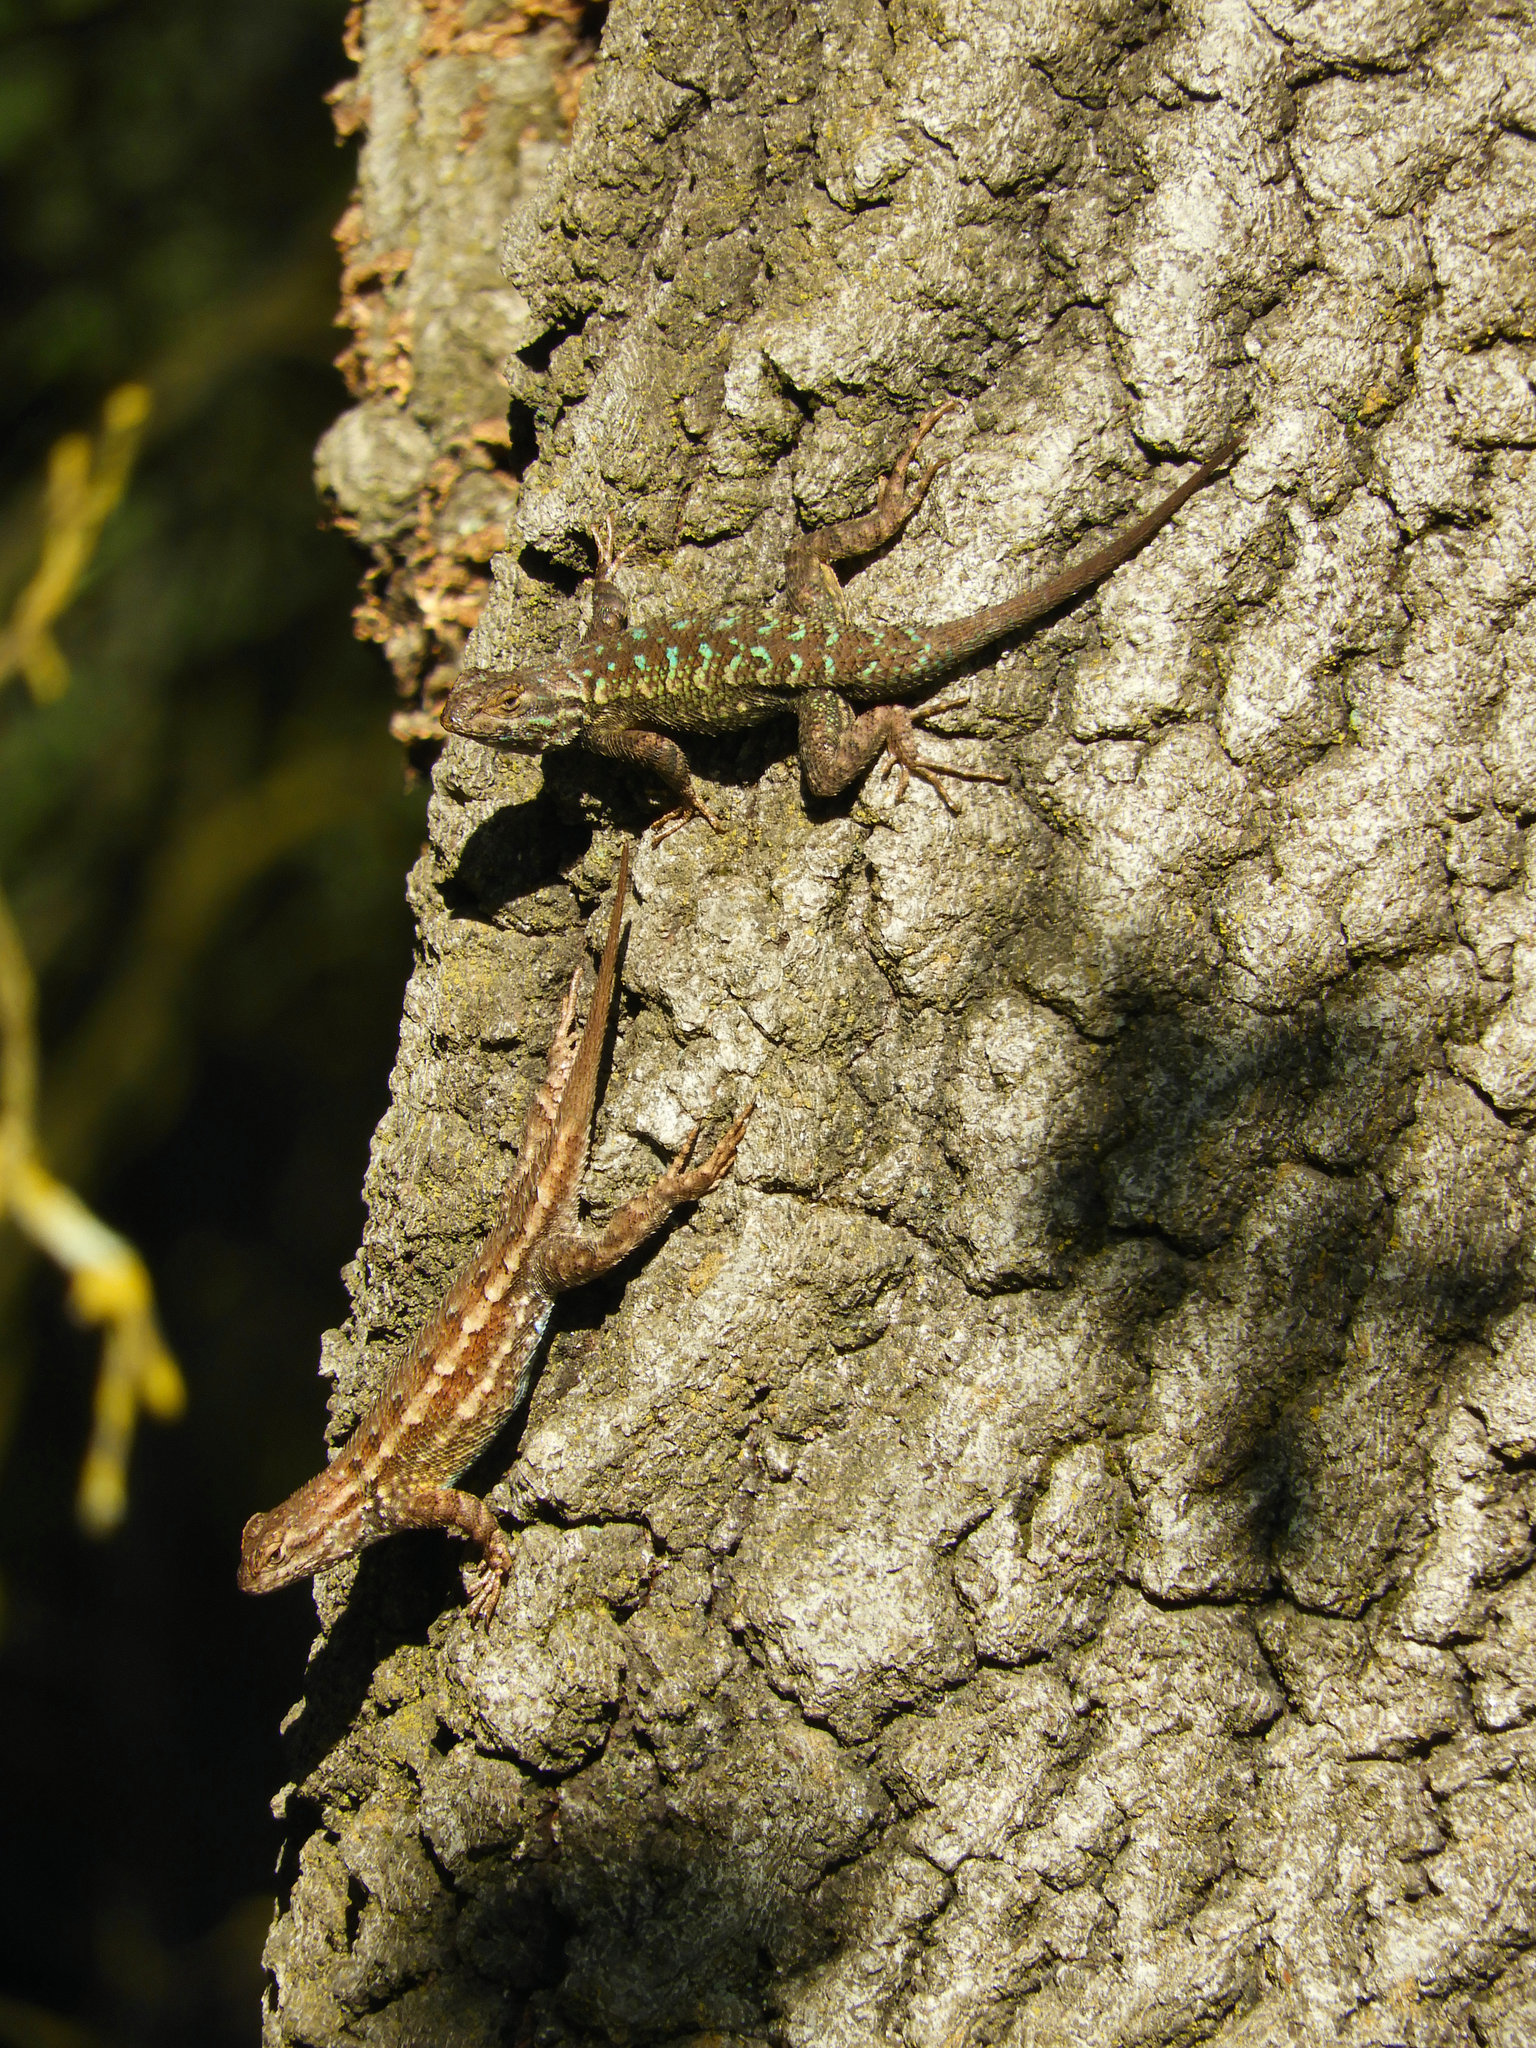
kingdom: Animalia
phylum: Chordata
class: Squamata
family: Phrynosomatidae
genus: Sceloporus
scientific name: Sceloporus occidentalis
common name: Western fence lizard
